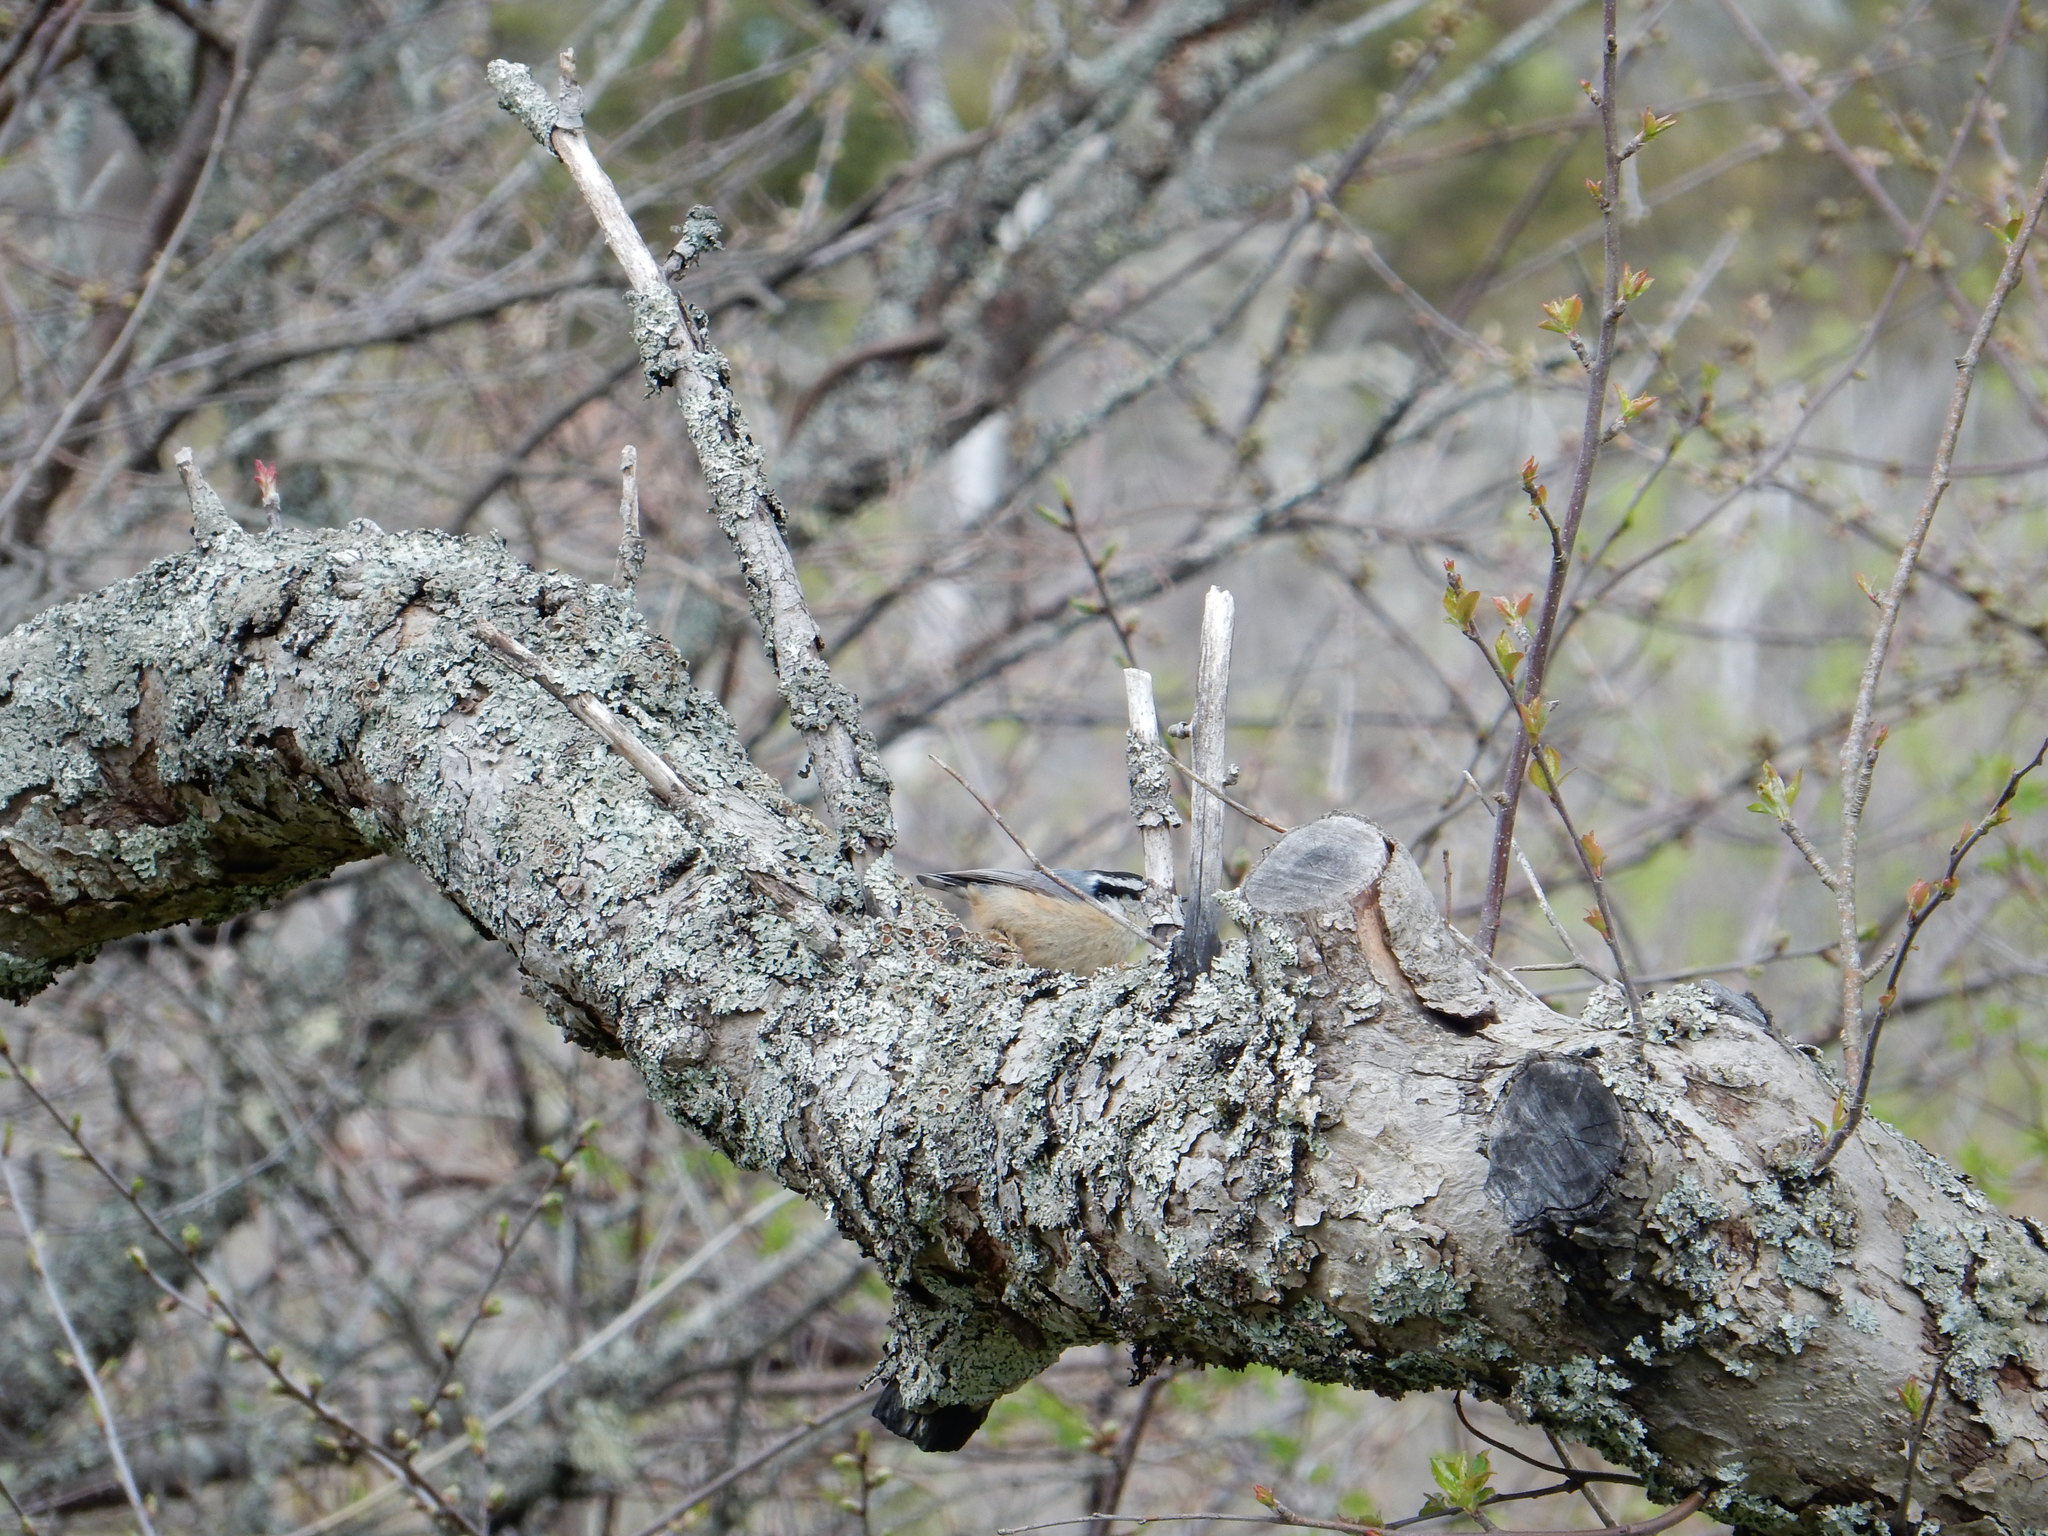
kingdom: Animalia
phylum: Chordata
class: Aves
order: Passeriformes
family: Sittidae
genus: Sitta
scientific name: Sitta canadensis
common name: Red-breasted nuthatch
